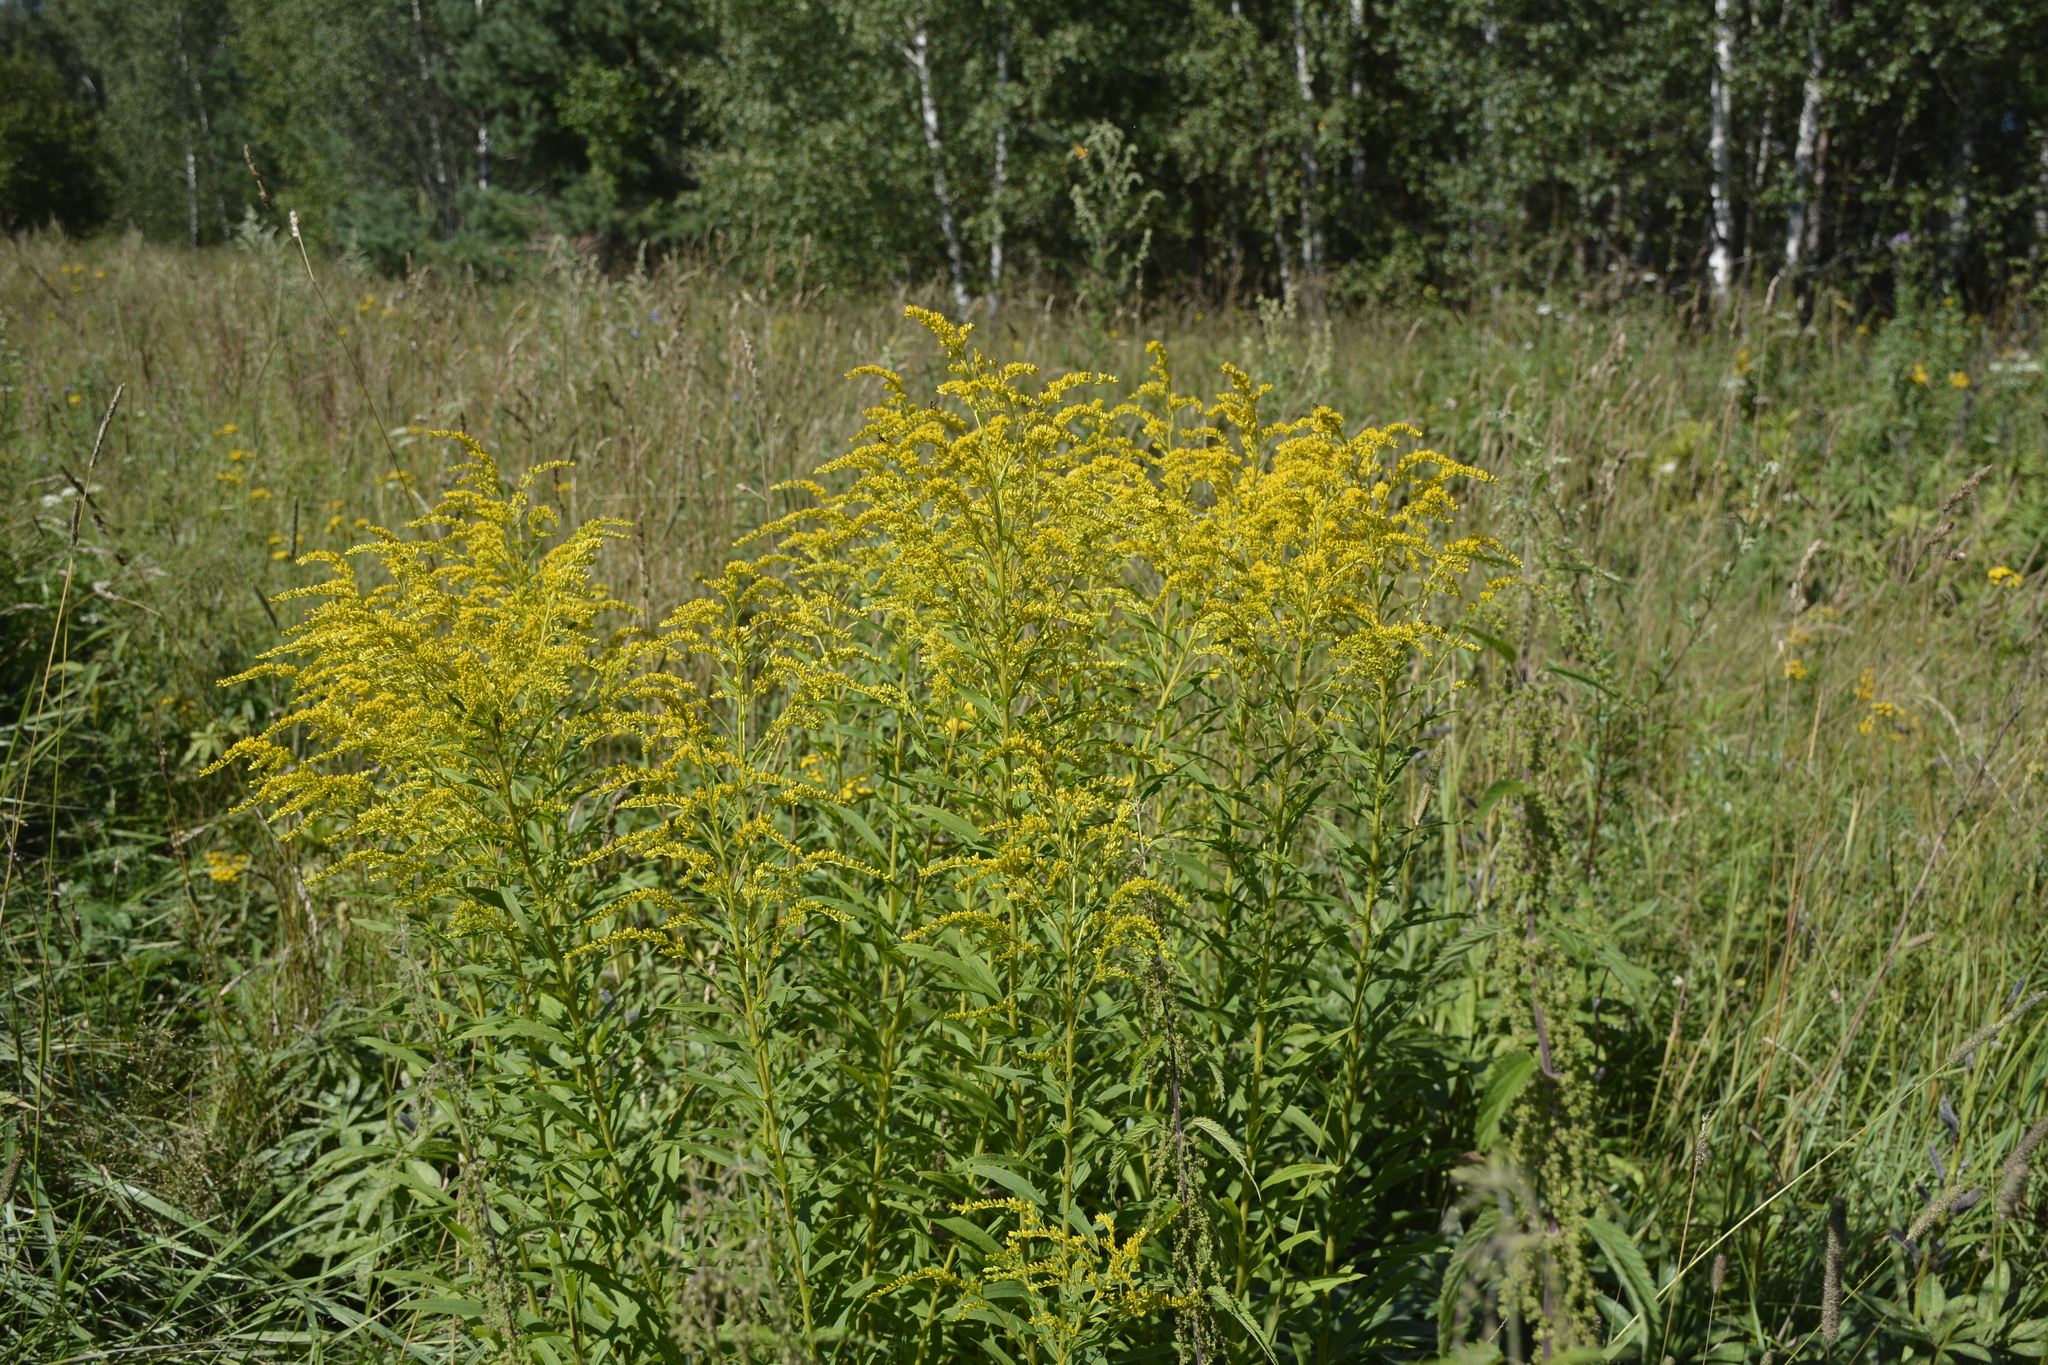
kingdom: Plantae
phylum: Tracheophyta
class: Magnoliopsida
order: Asterales
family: Asteraceae
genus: Solidago
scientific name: Solidago canadensis
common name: Canada goldenrod
